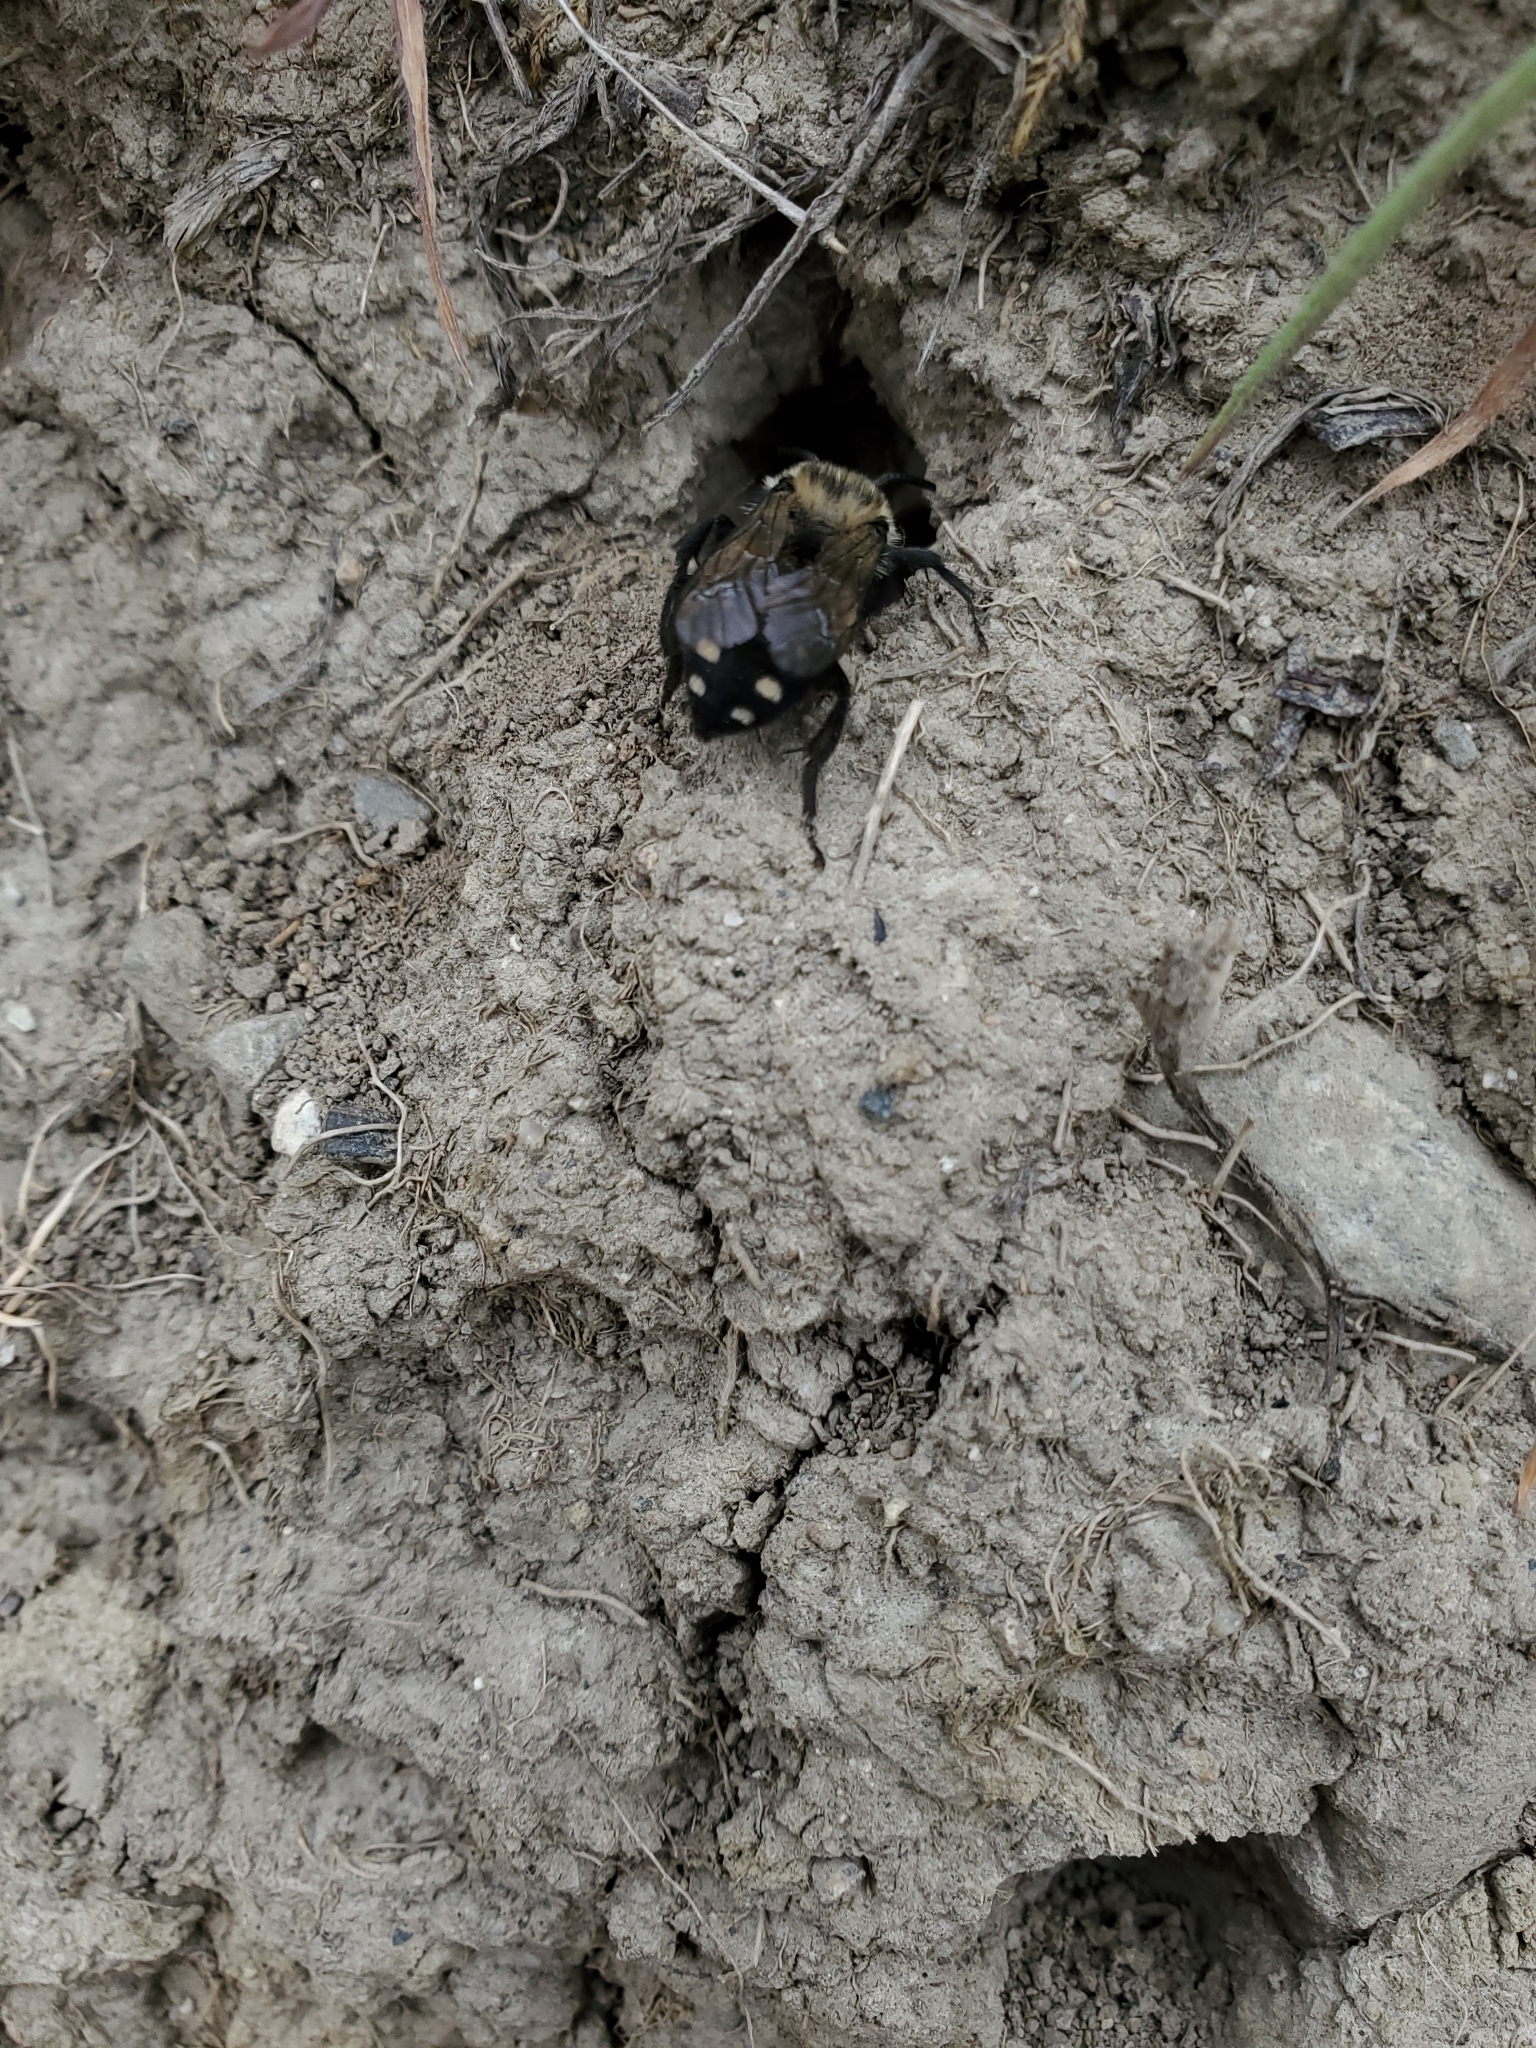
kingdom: Animalia
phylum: Arthropoda
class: Insecta
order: Hymenoptera
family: Apidae
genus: Melecta
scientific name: Melecta separata
